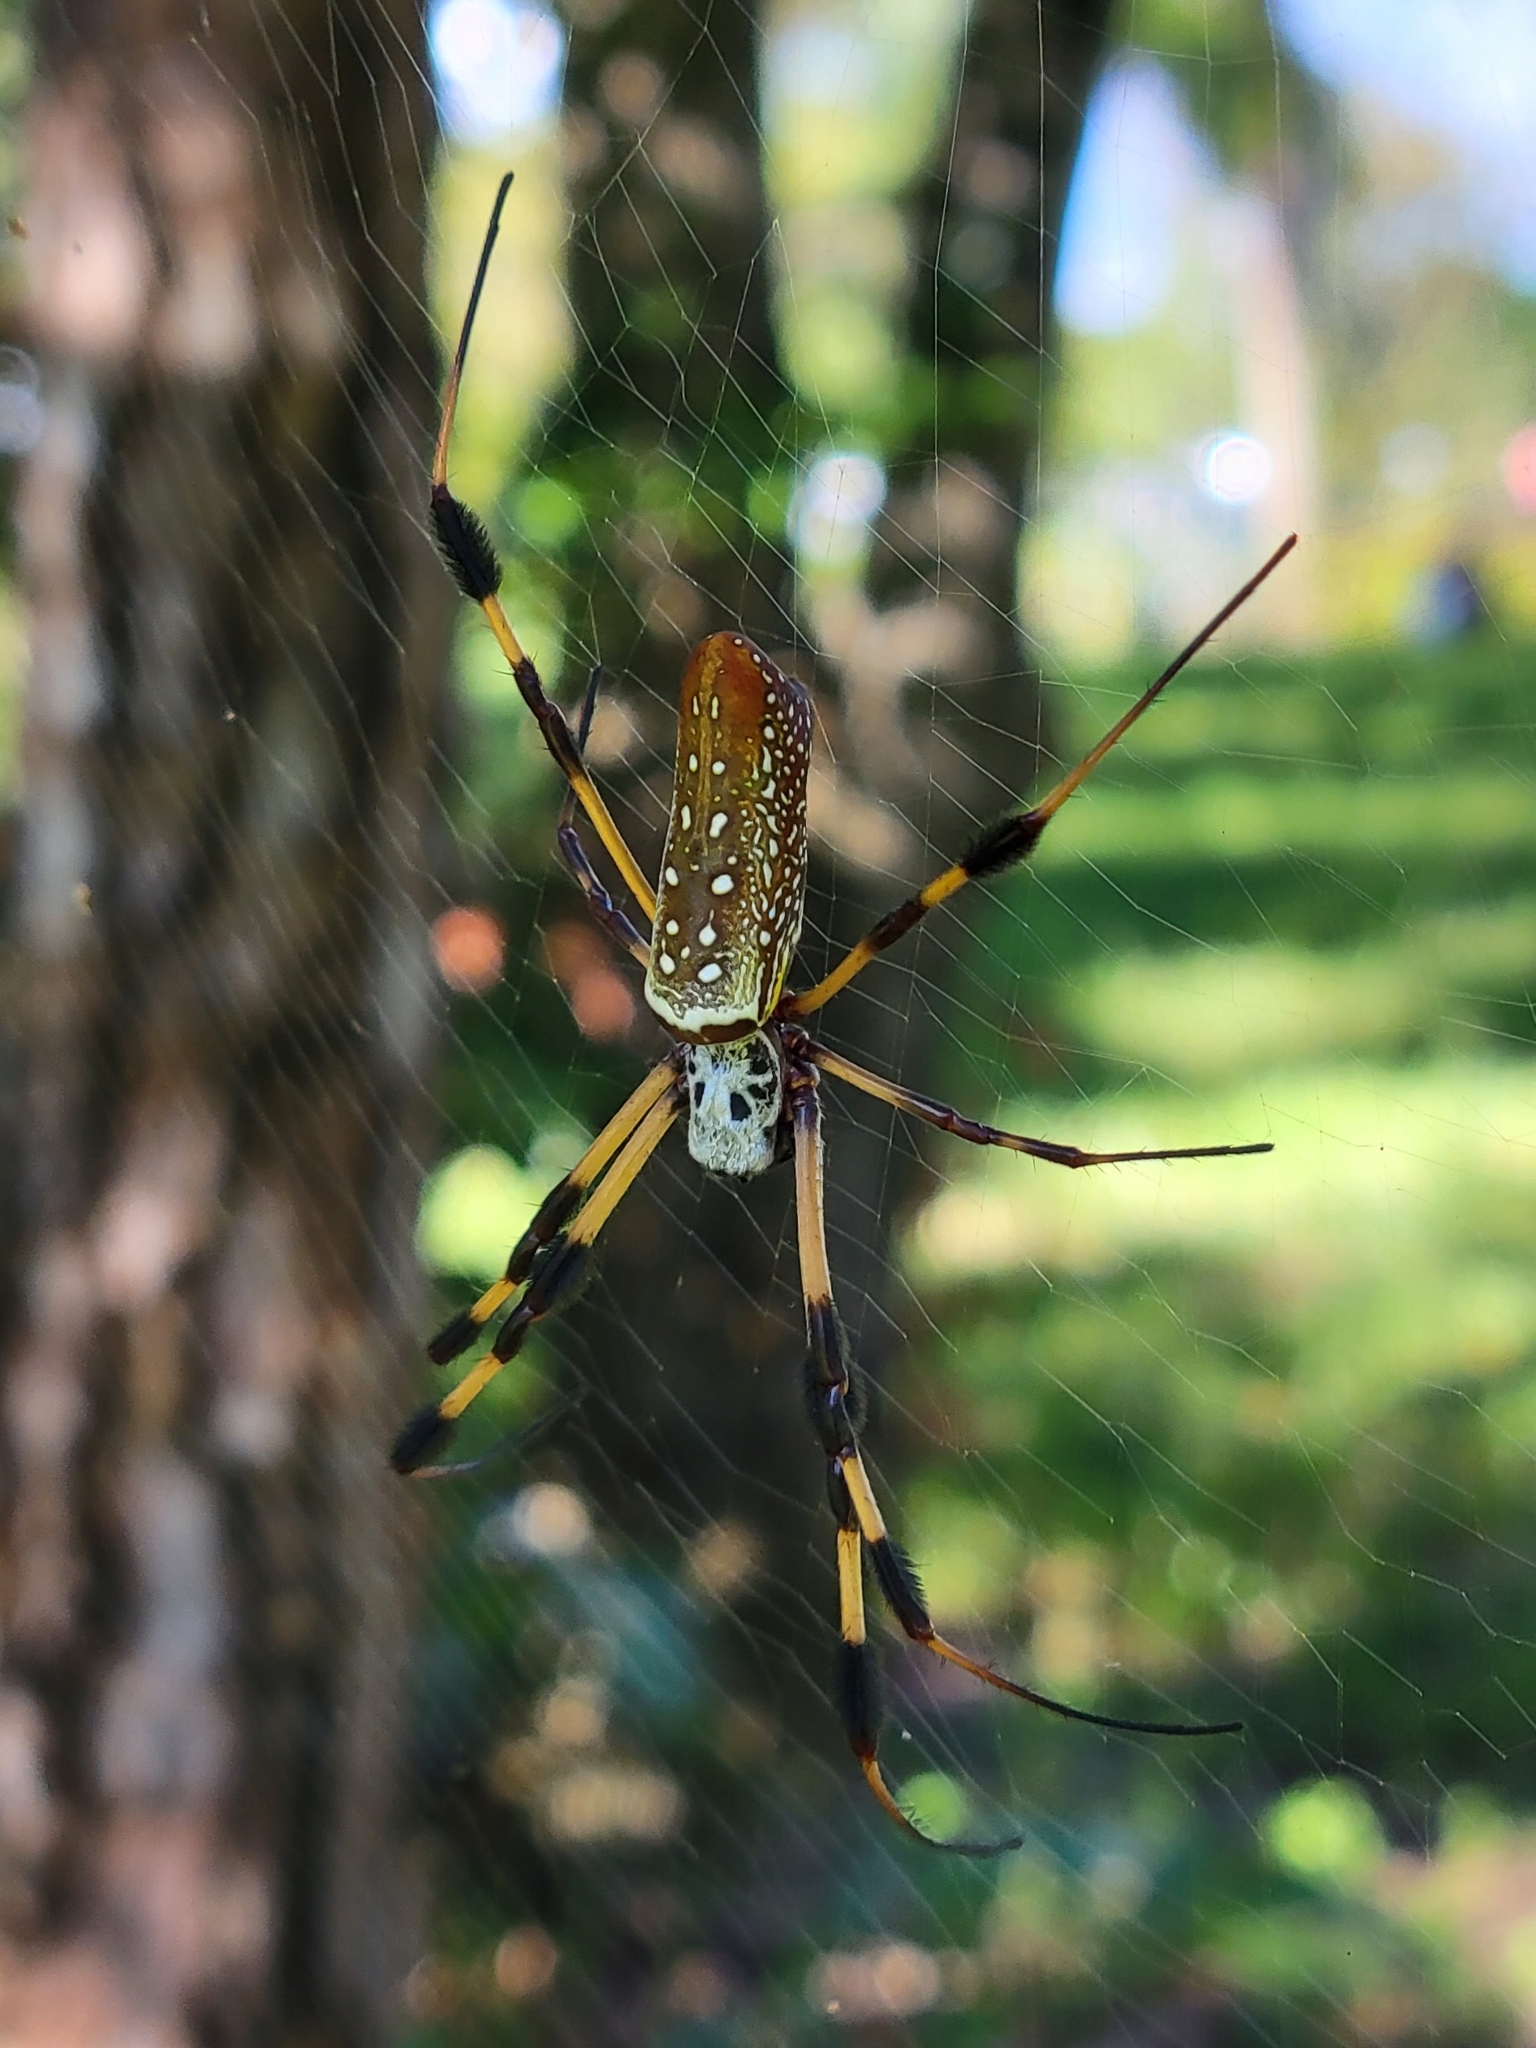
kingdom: Animalia
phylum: Arthropoda
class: Arachnida
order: Araneae
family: Araneidae
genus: Trichonephila
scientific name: Trichonephila clavipes
